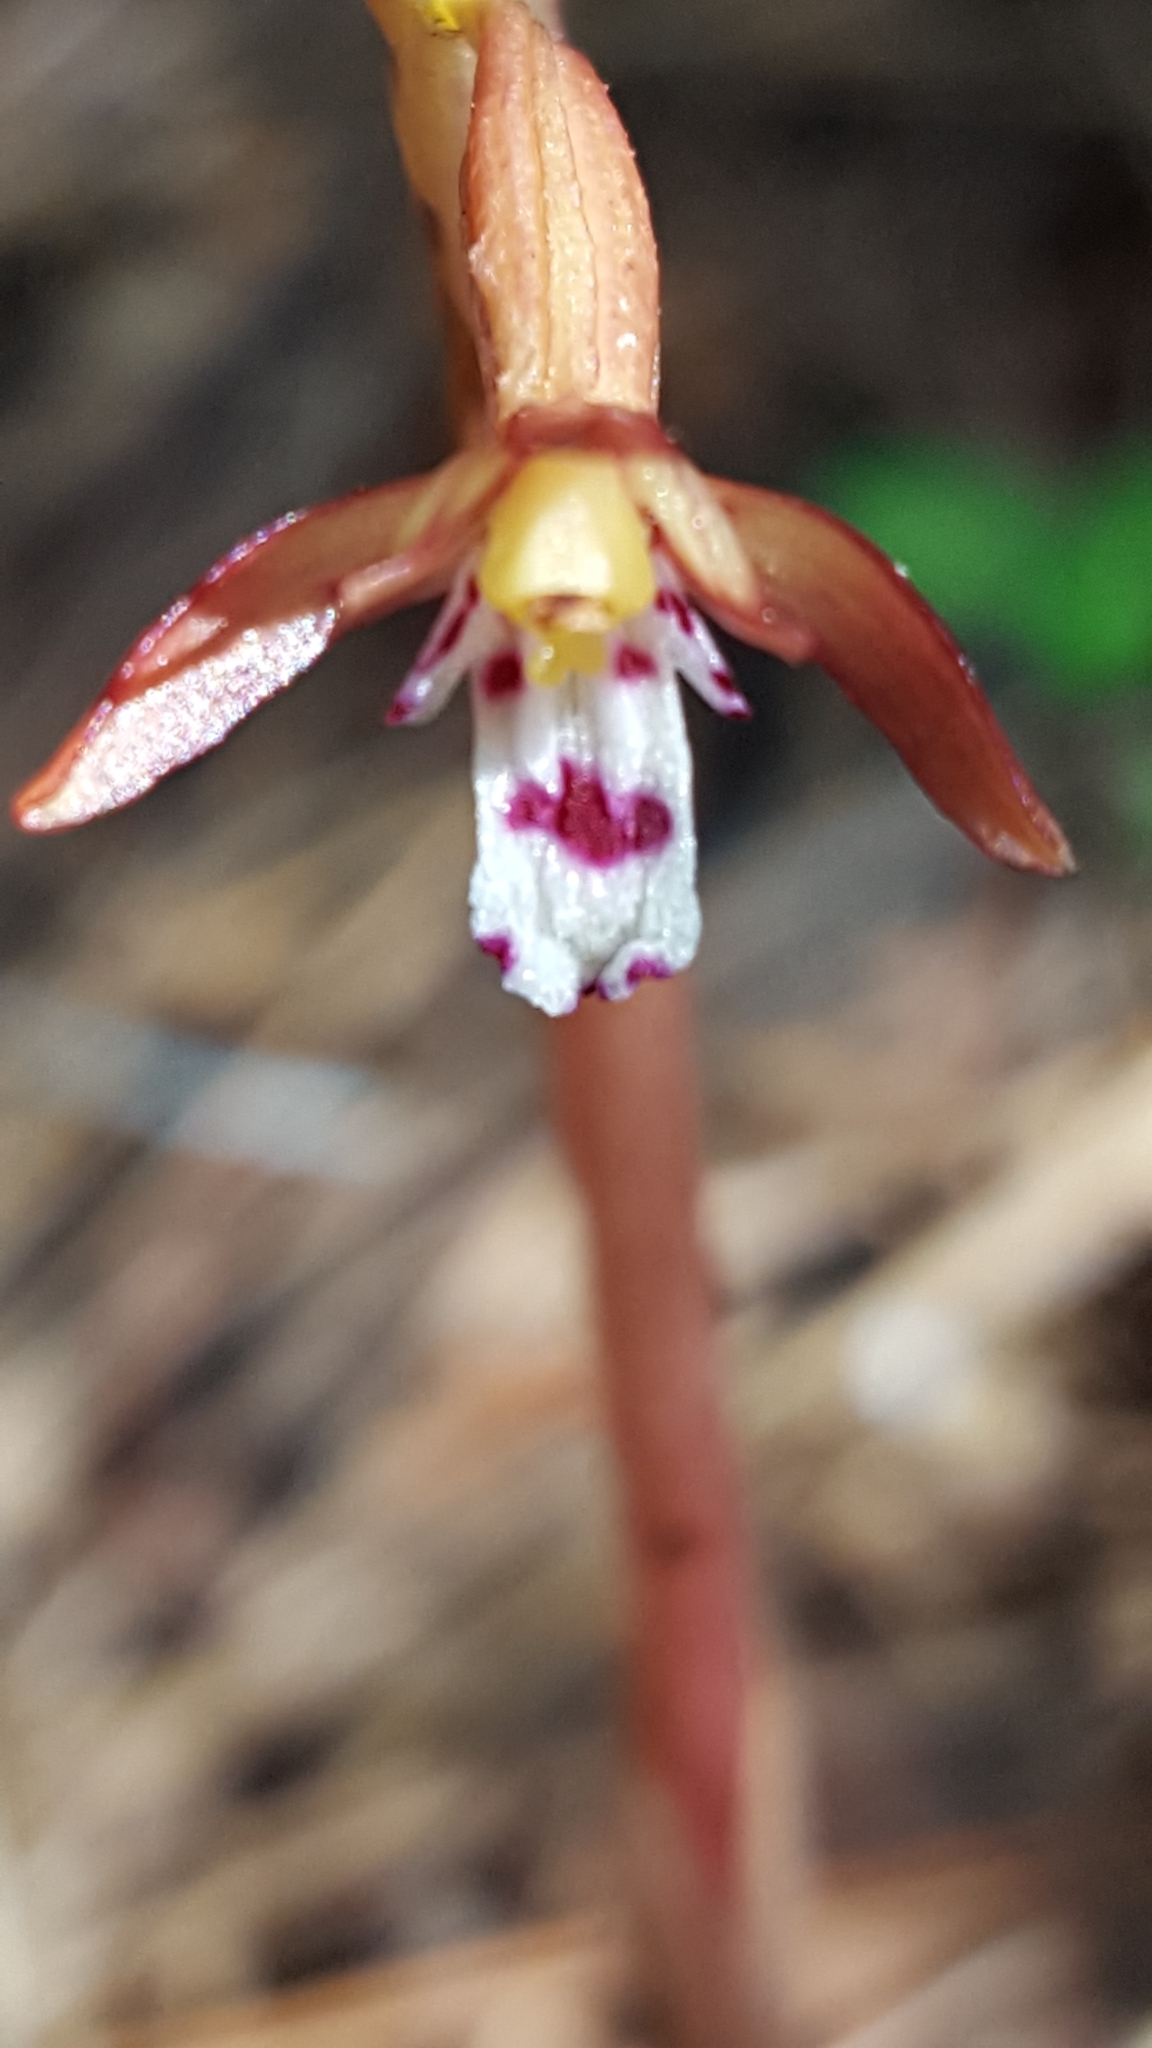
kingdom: Plantae
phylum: Tracheophyta
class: Liliopsida
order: Asparagales
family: Orchidaceae
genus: Corallorhiza
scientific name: Corallorhiza maculata
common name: Spotted coralroot
